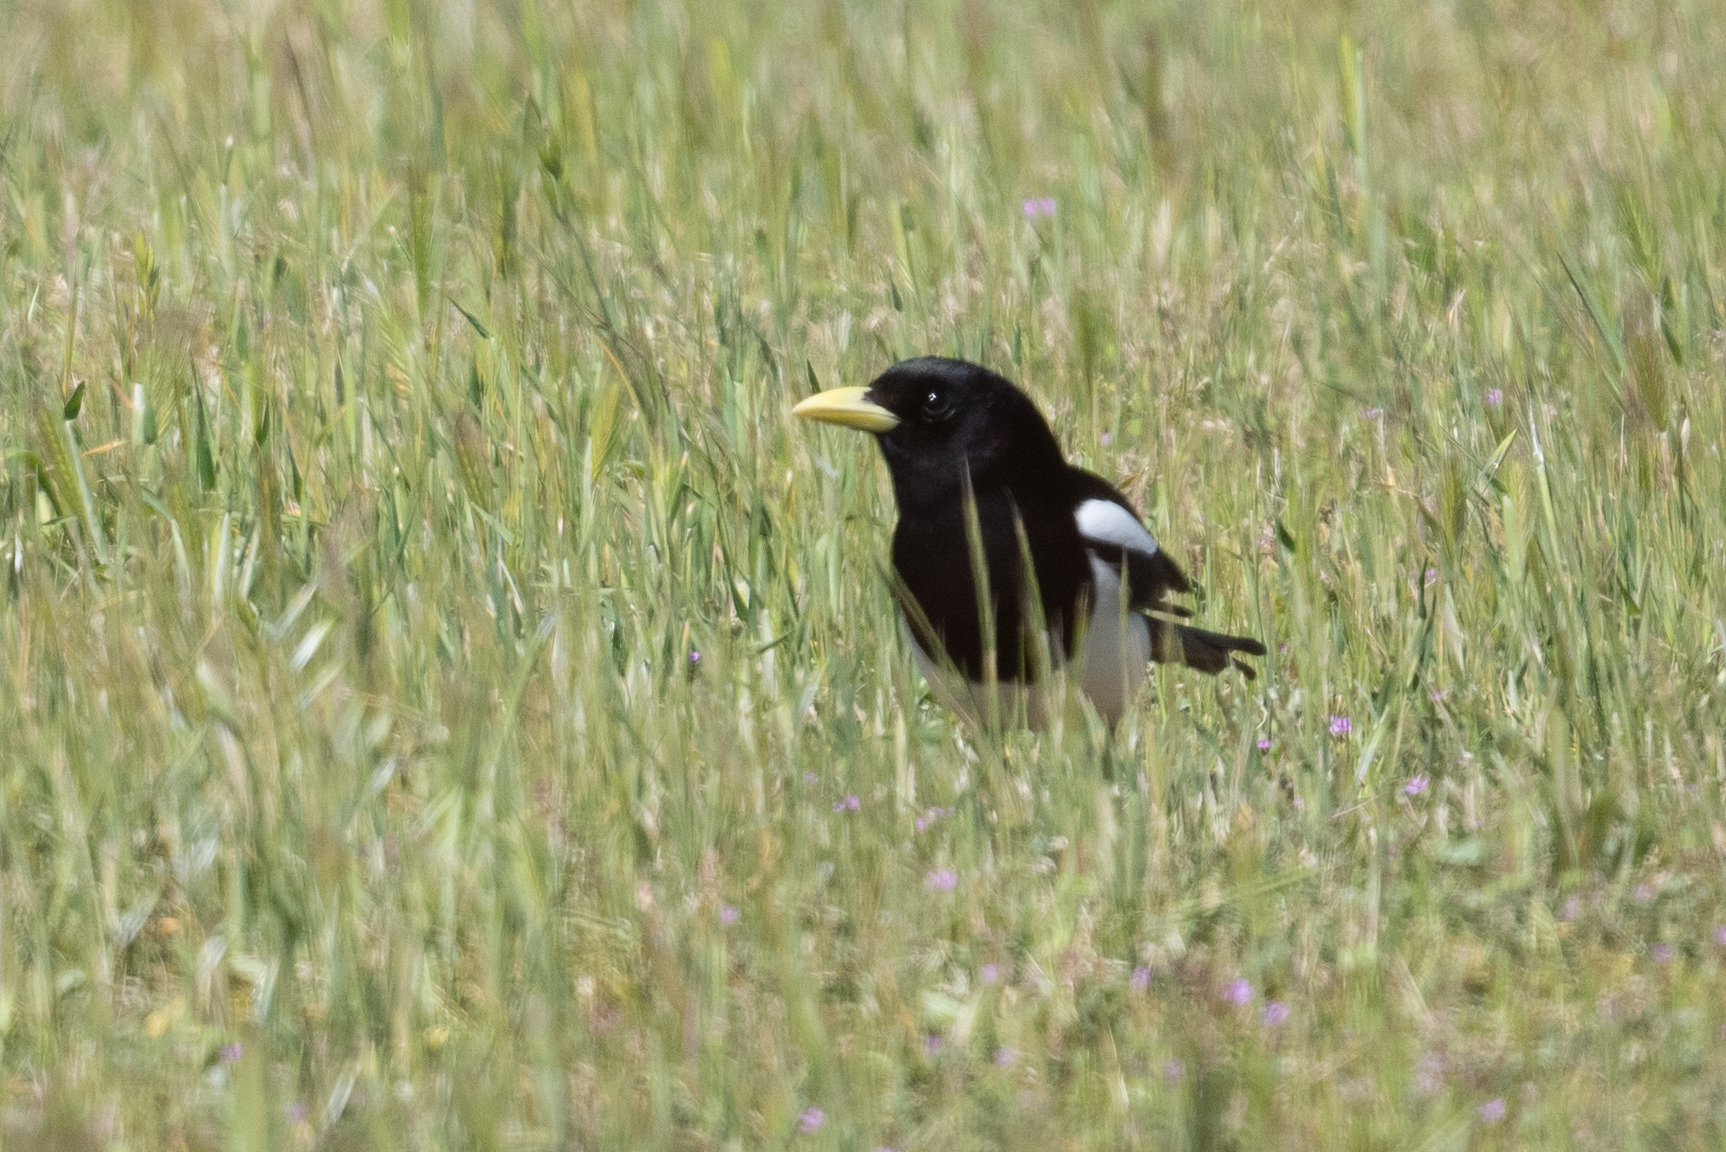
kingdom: Animalia
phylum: Chordata
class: Aves
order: Passeriformes
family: Corvidae
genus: Pica
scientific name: Pica nuttalli
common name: Yellow-billed magpie
